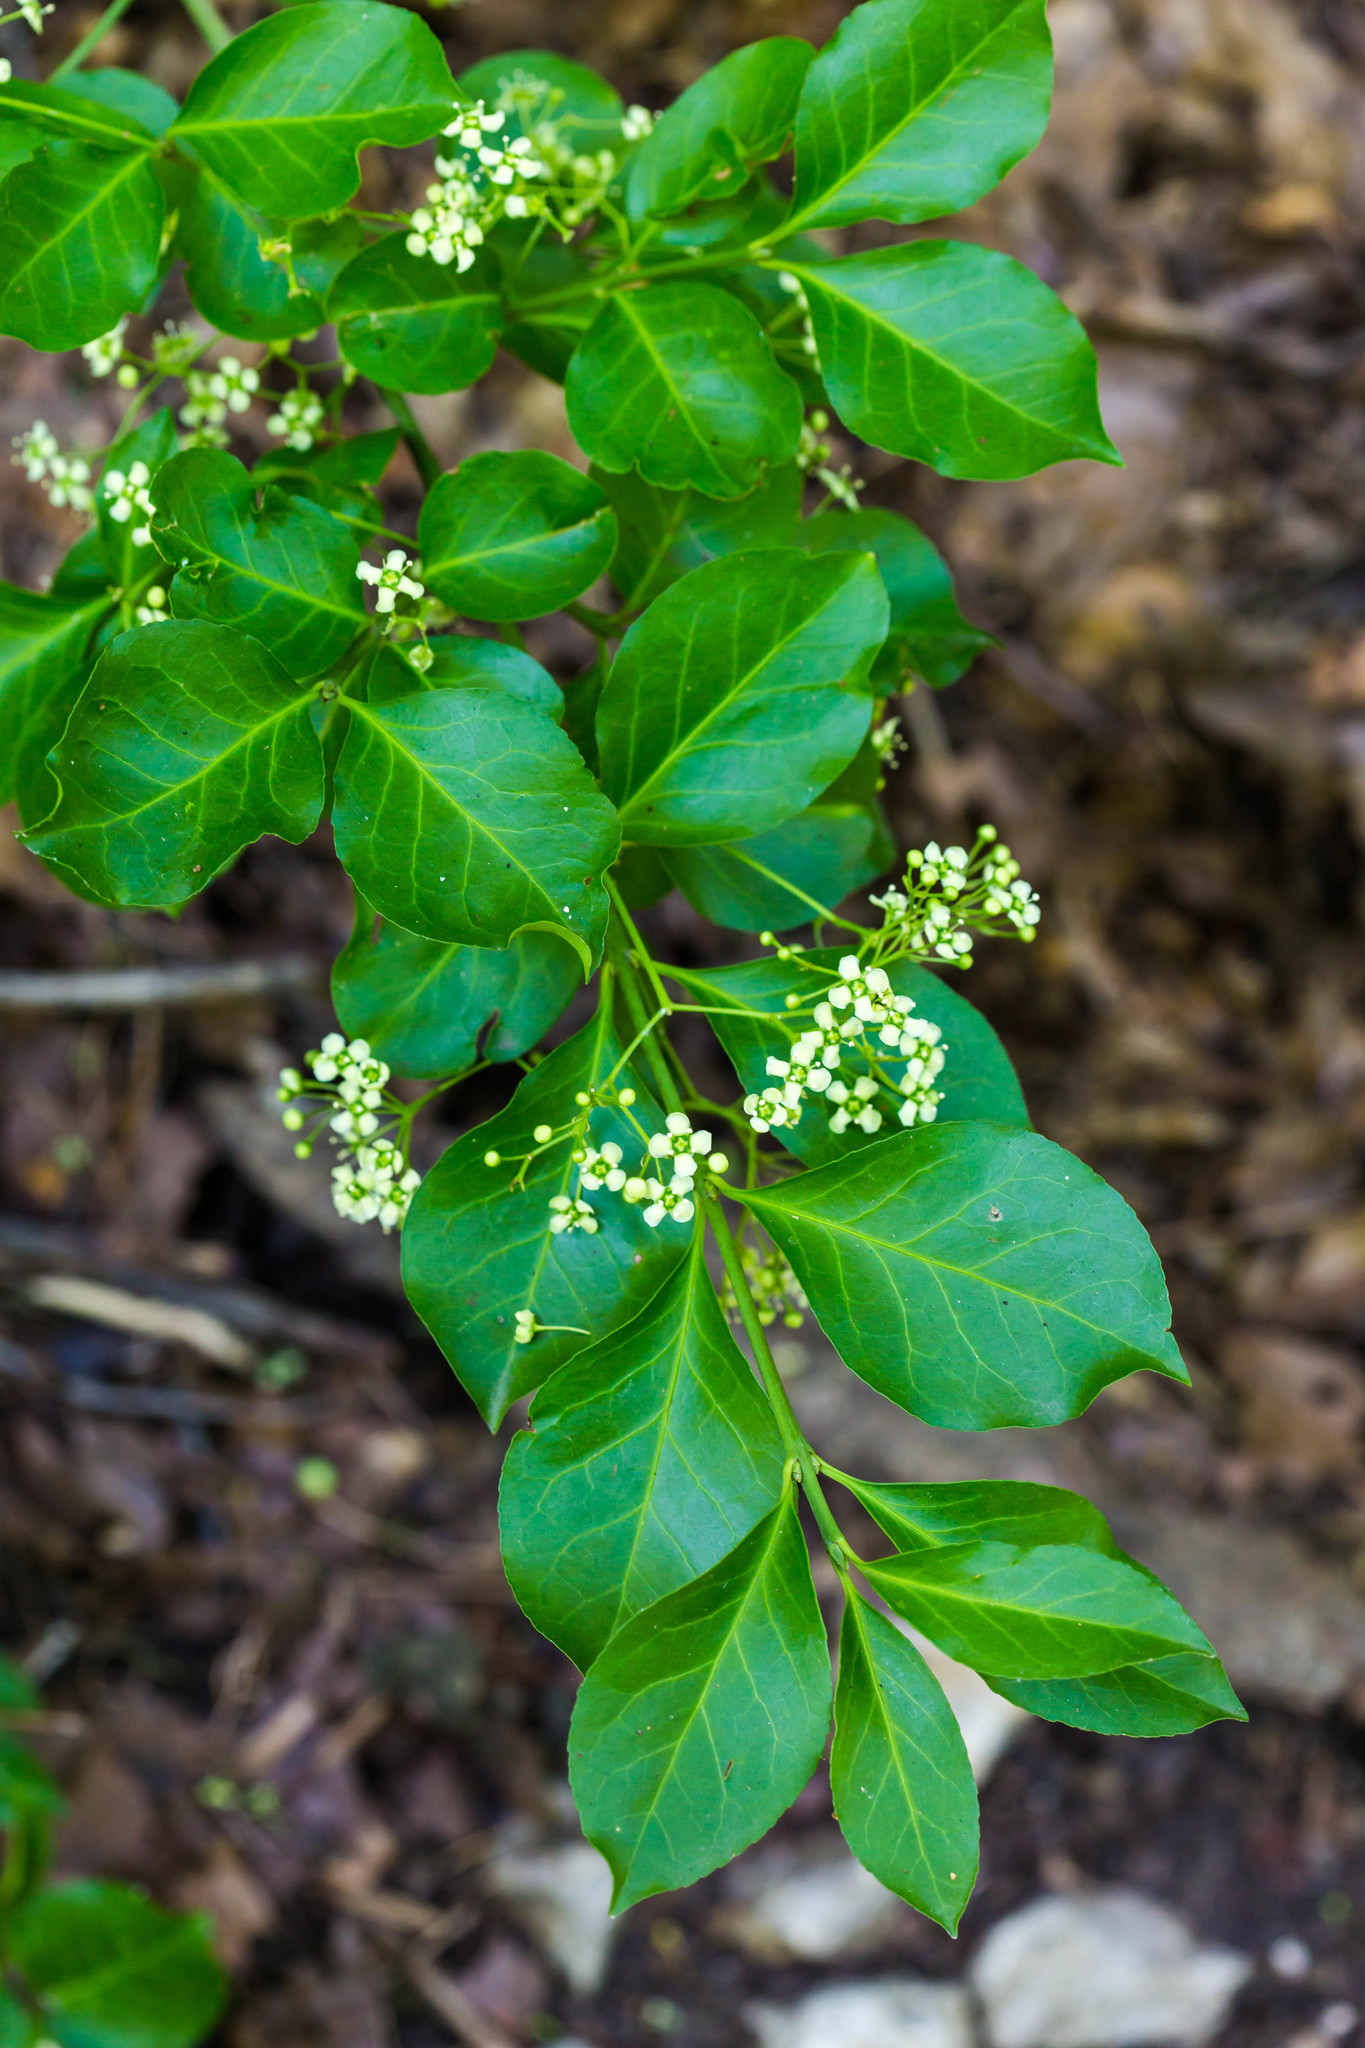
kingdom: Plantae
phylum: Tracheophyta
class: Magnoliopsida
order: Celastrales
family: Celastraceae
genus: Euonymus
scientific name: Euonymus fortunei
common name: Climbing euonymus
